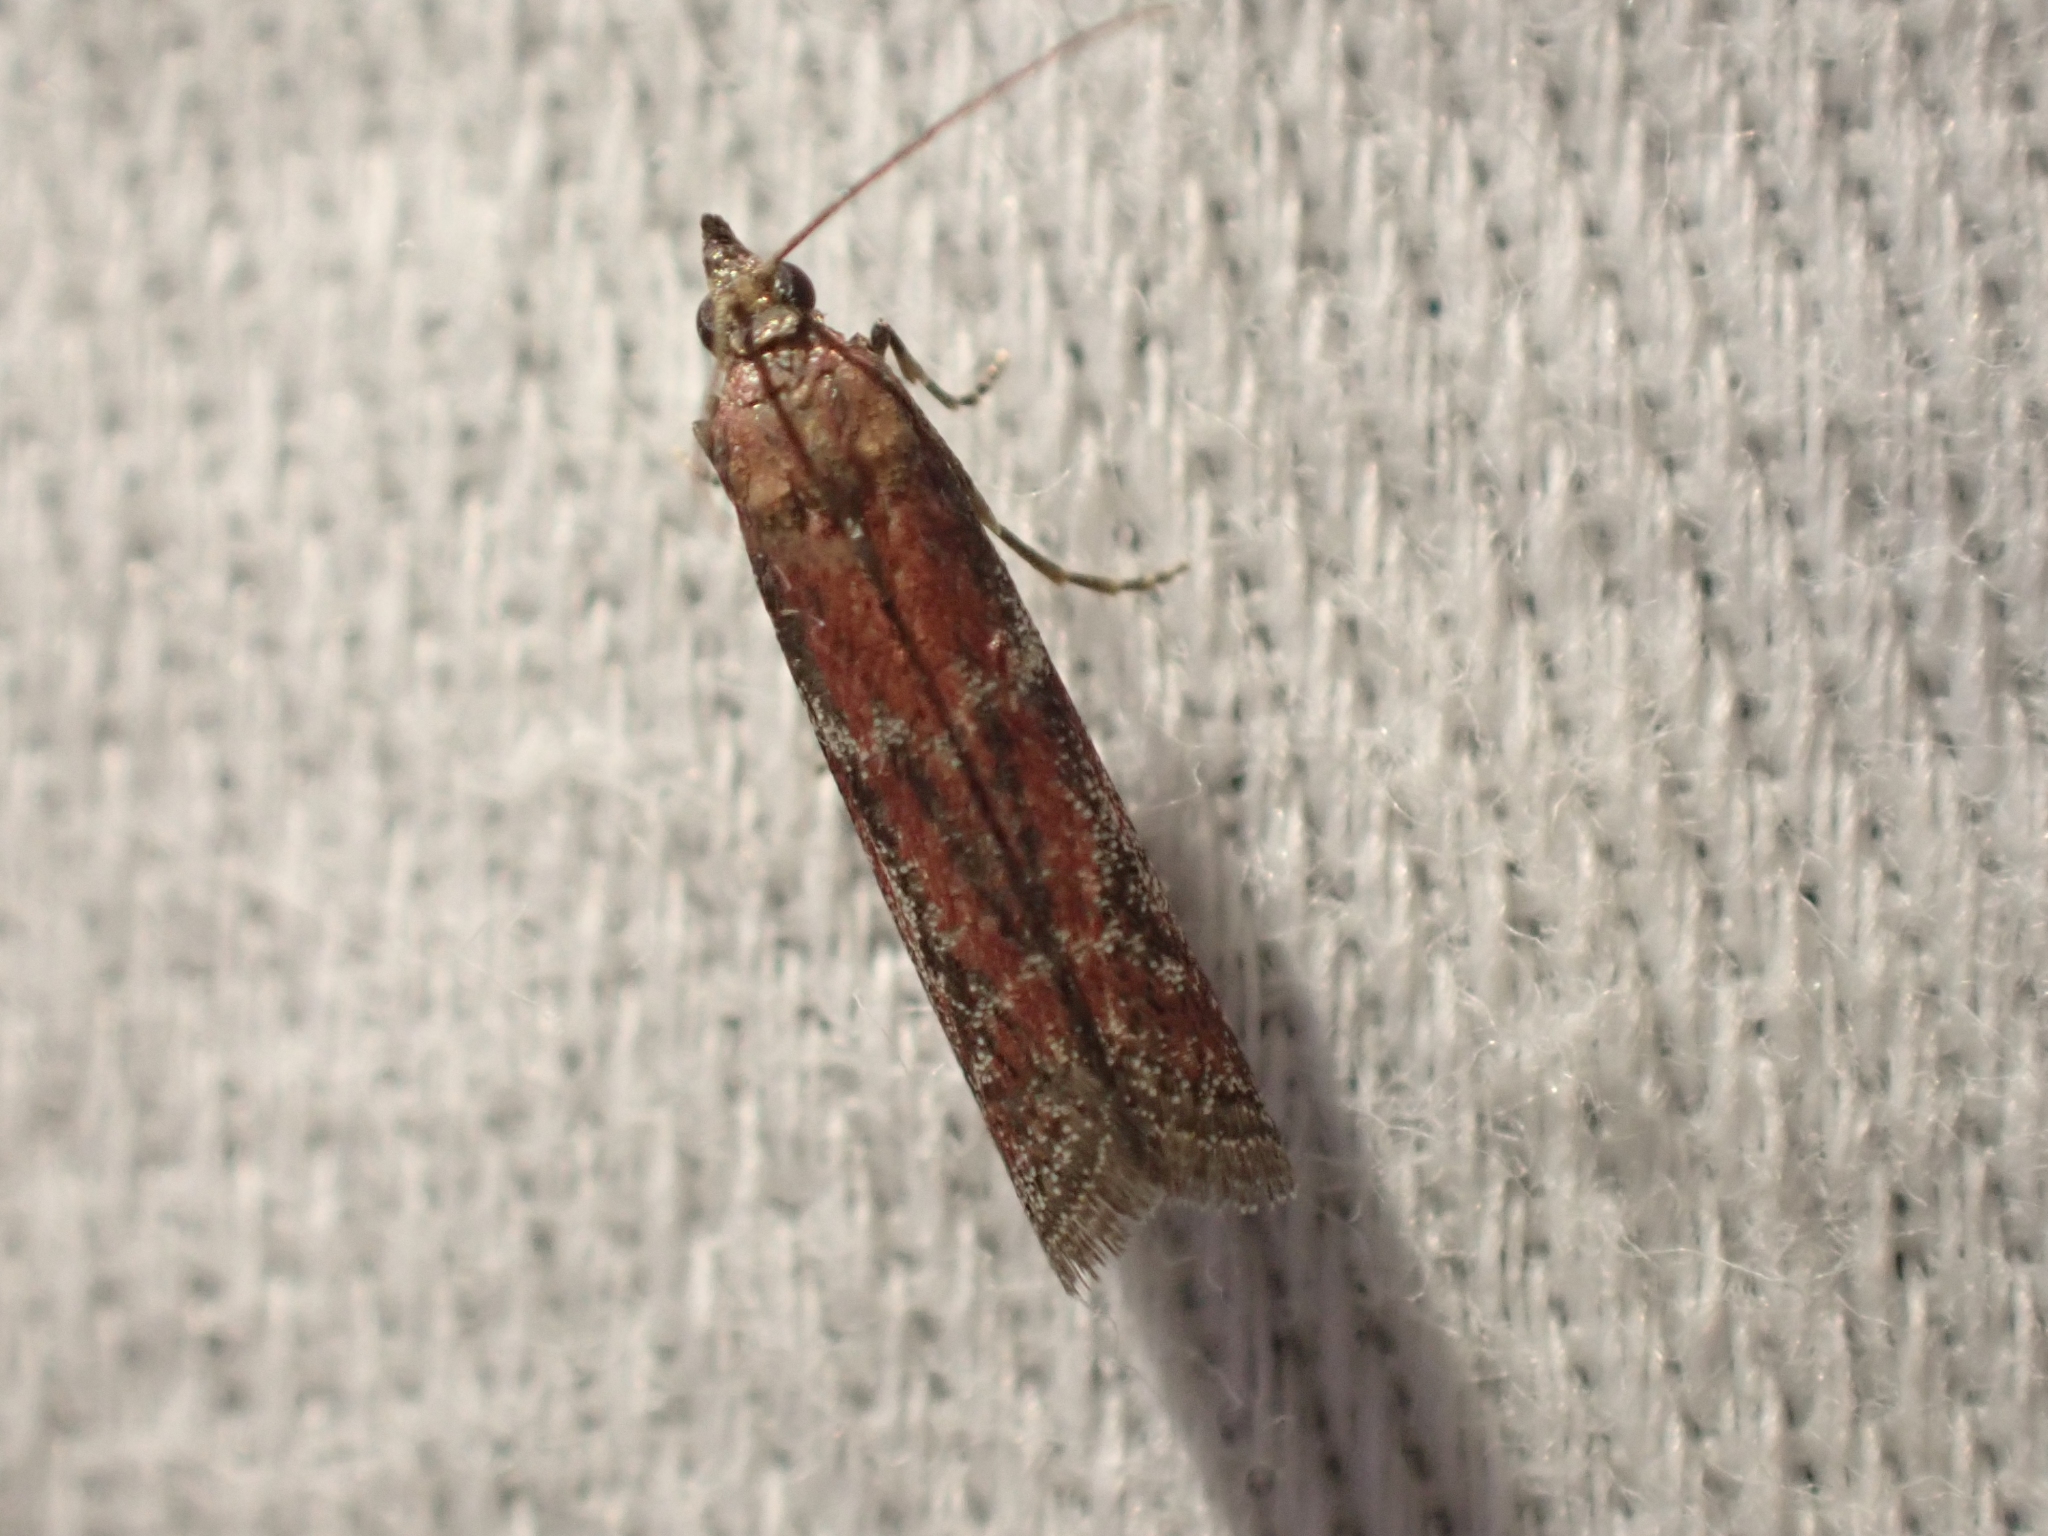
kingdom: Animalia
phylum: Arthropoda
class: Insecta
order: Lepidoptera
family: Pyralidae
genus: Ephestiodes
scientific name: Ephestiodes erythrella
